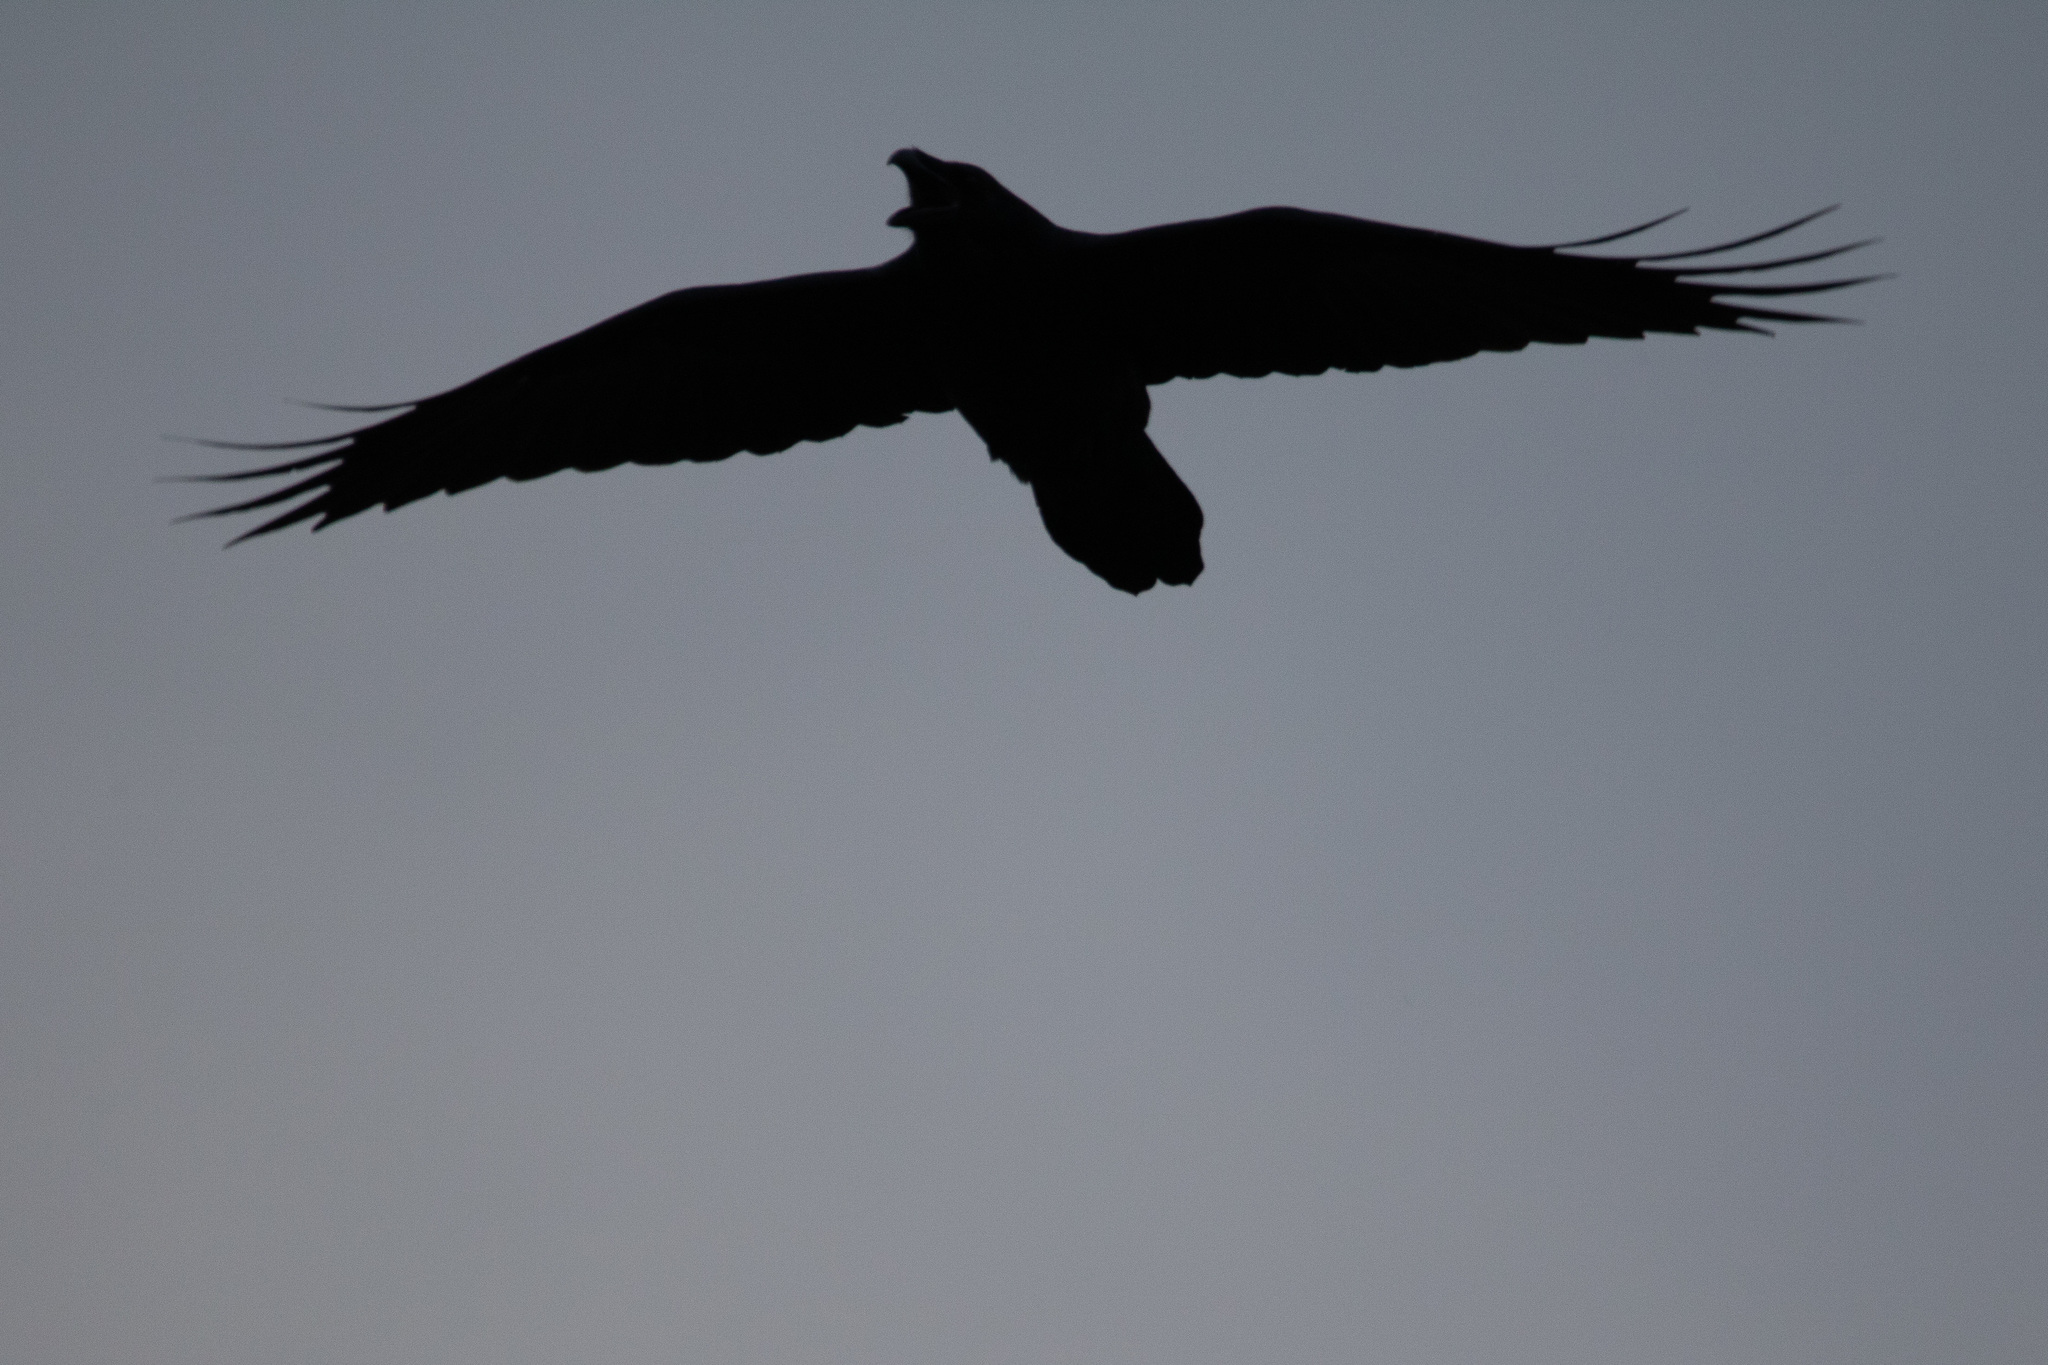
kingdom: Animalia
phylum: Chordata
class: Aves
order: Passeriformes
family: Corvidae
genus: Corvus
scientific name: Corvus corax
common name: Common raven
